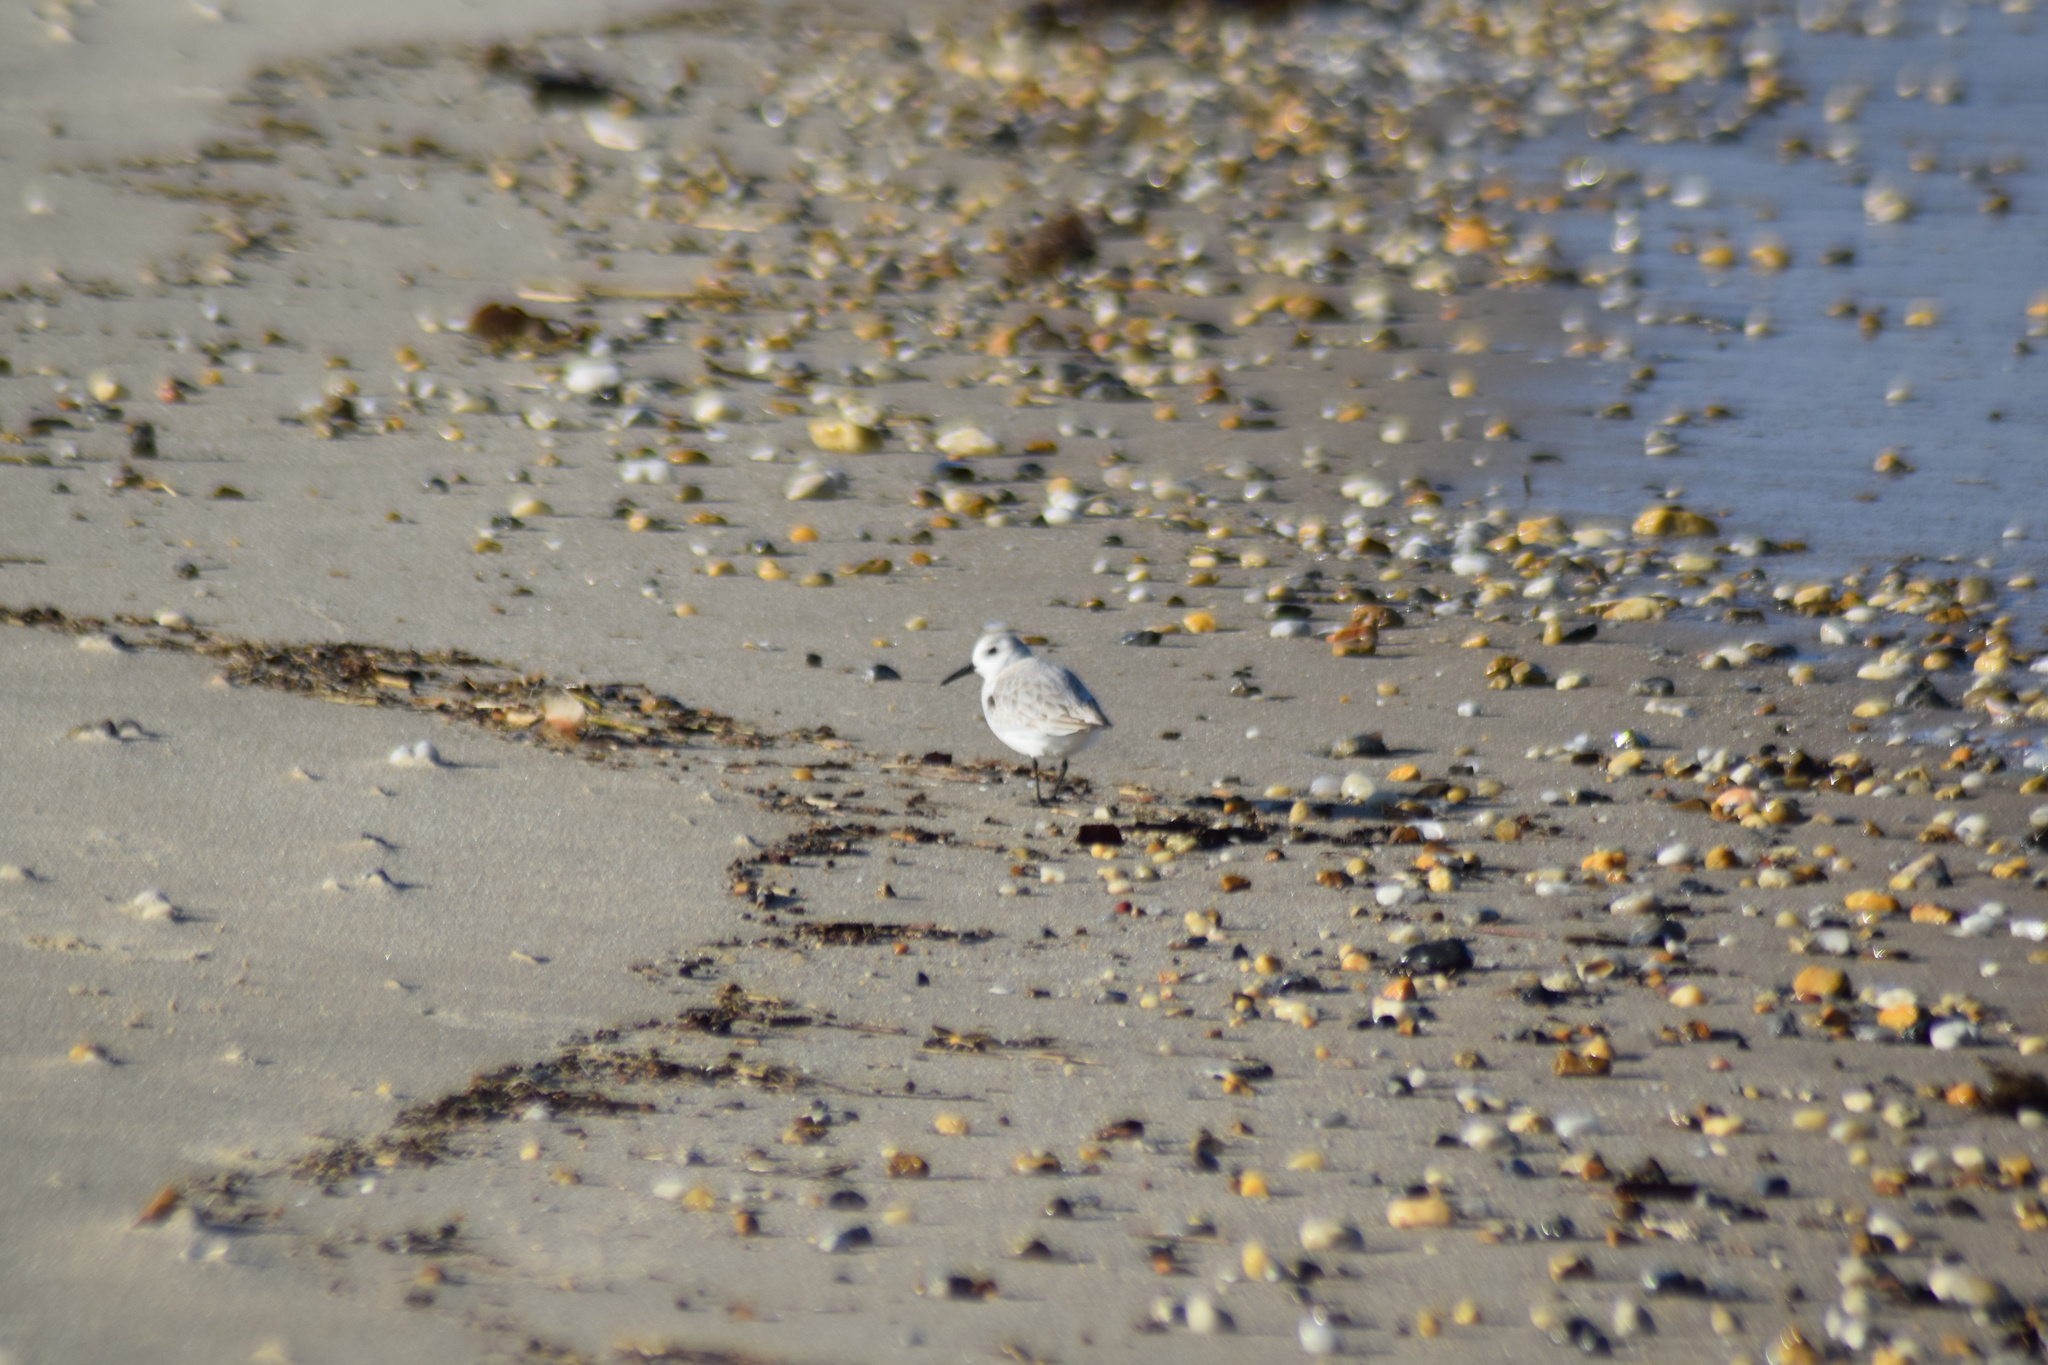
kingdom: Animalia
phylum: Chordata
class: Aves
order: Charadriiformes
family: Scolopacidae
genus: Calidris
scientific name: Calidris alba
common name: Sanderling
